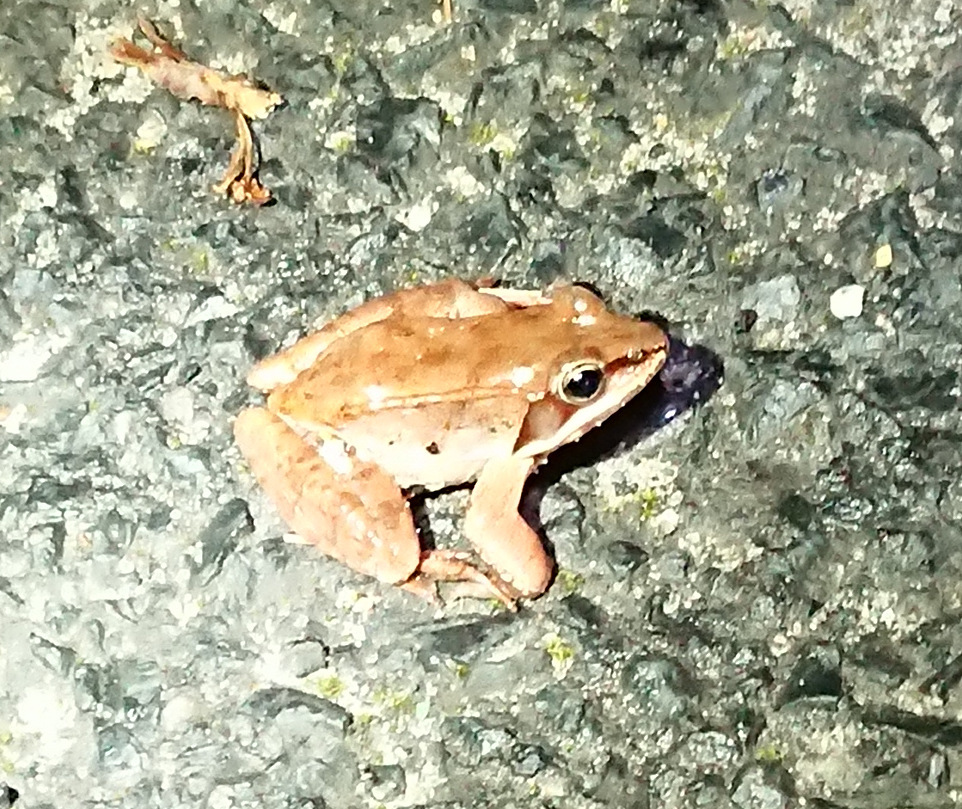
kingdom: Animalia
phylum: Chordata
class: Amphibia
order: Anura
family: Ranidae
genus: Lithobates
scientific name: Lithobates sylvaticus
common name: Wood frog
